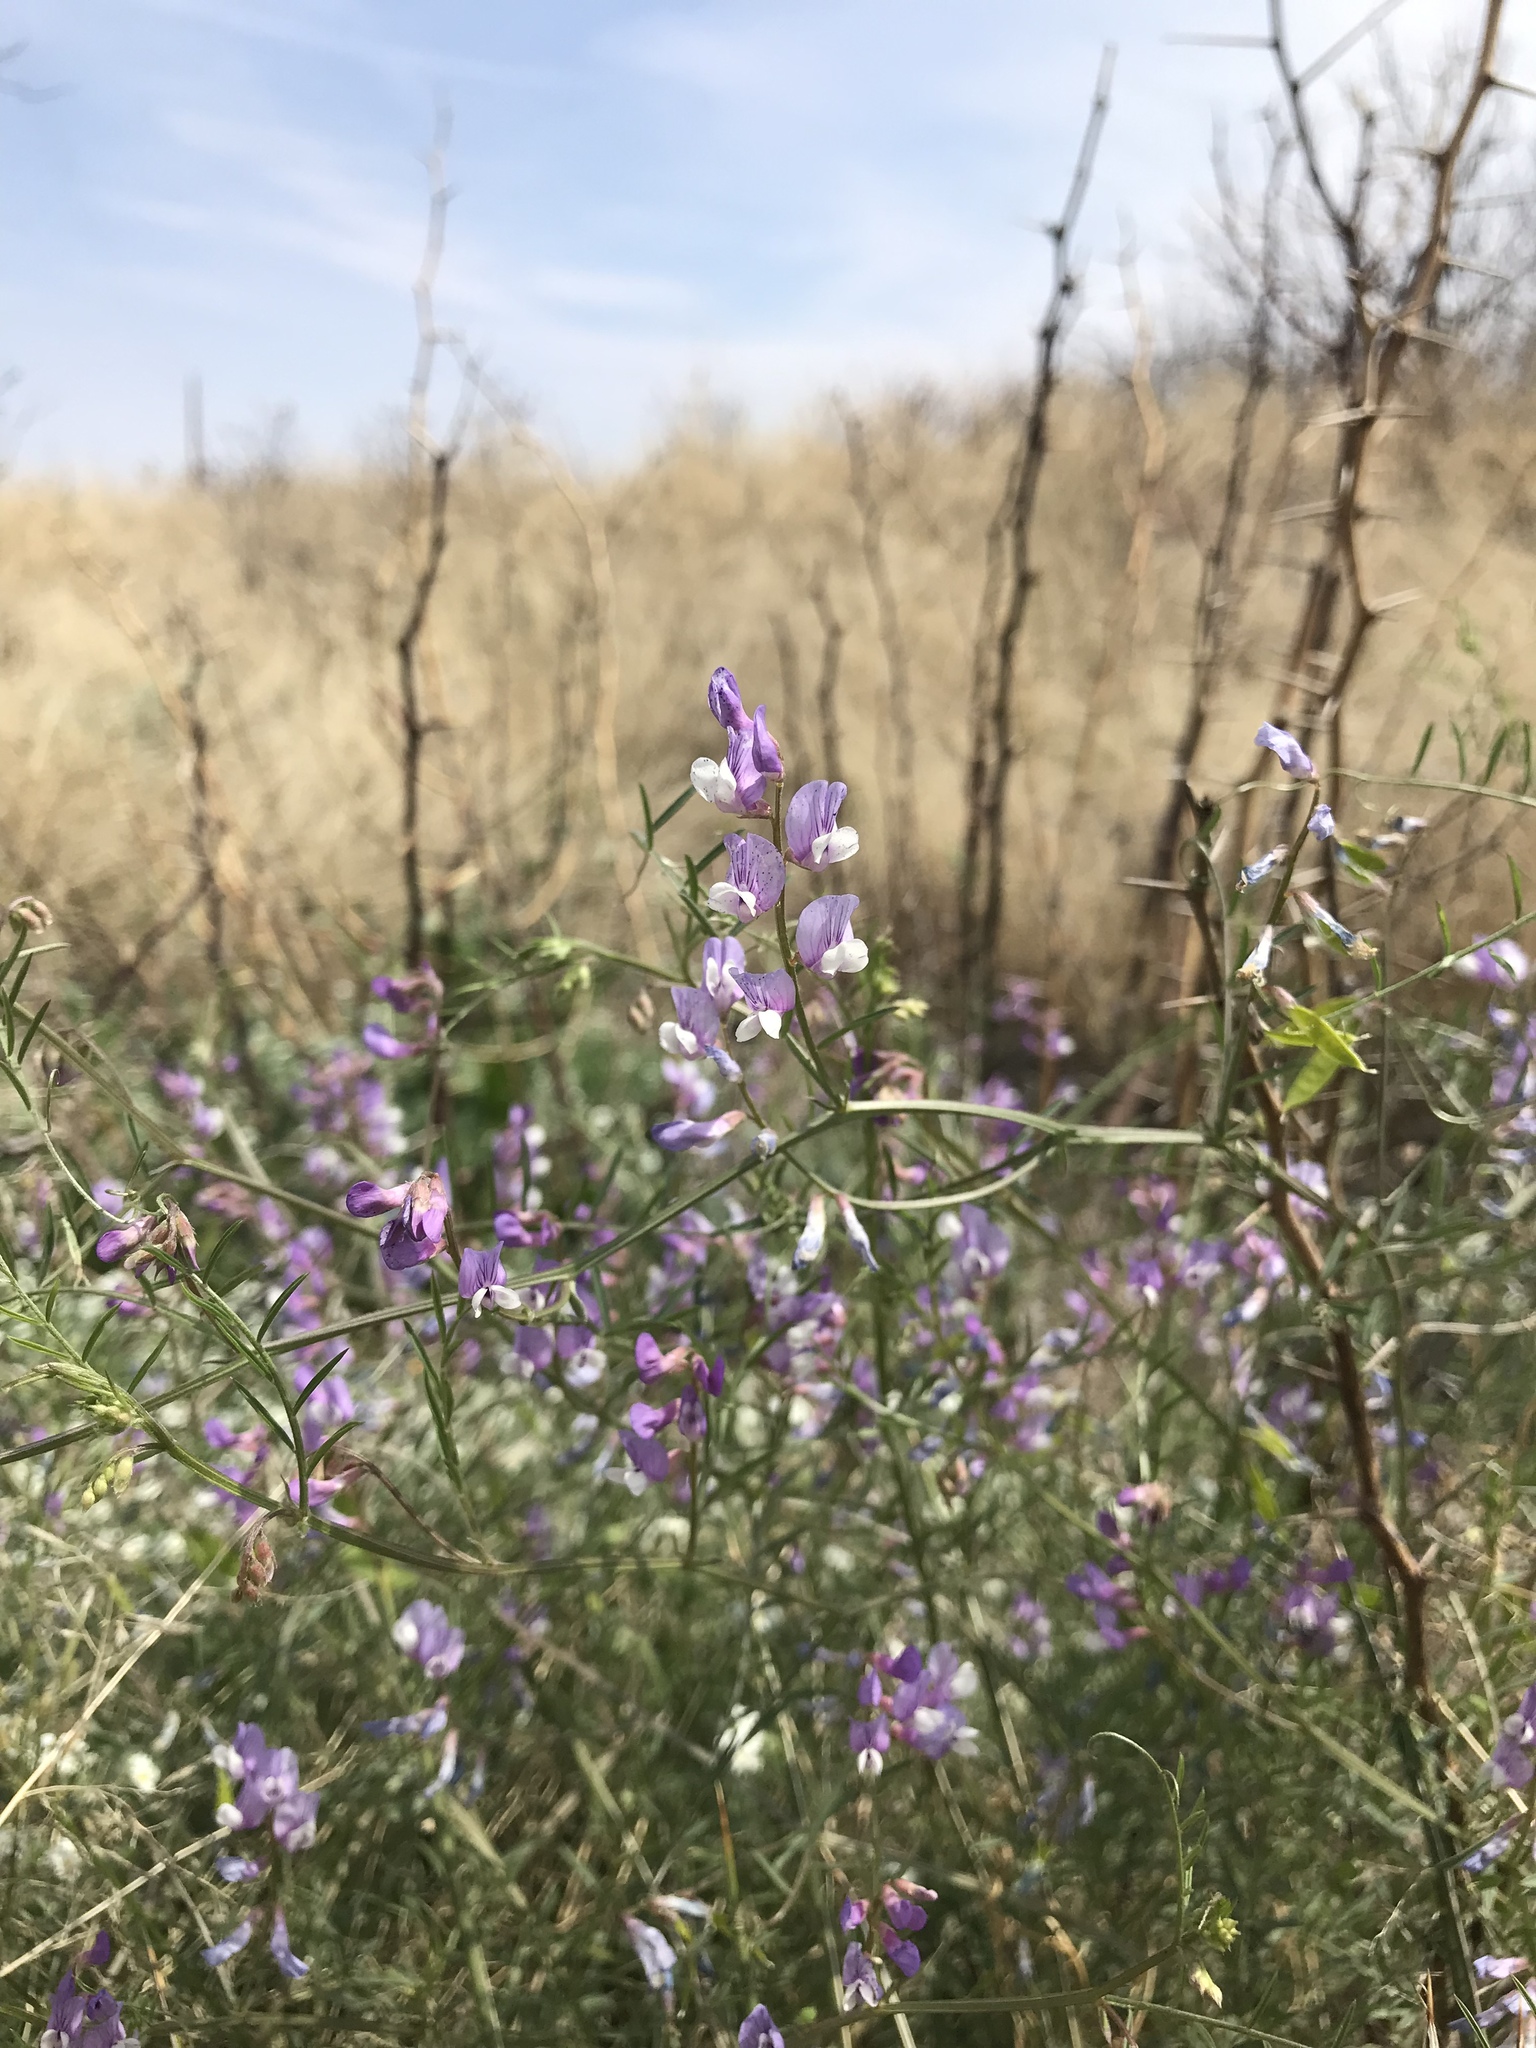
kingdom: Plantae
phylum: Tracheophyta
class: Magnoliopsida
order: Fabales
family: Fabaceae
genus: Vicia
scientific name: Vicia ludoviciana
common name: Louisiana vetch
